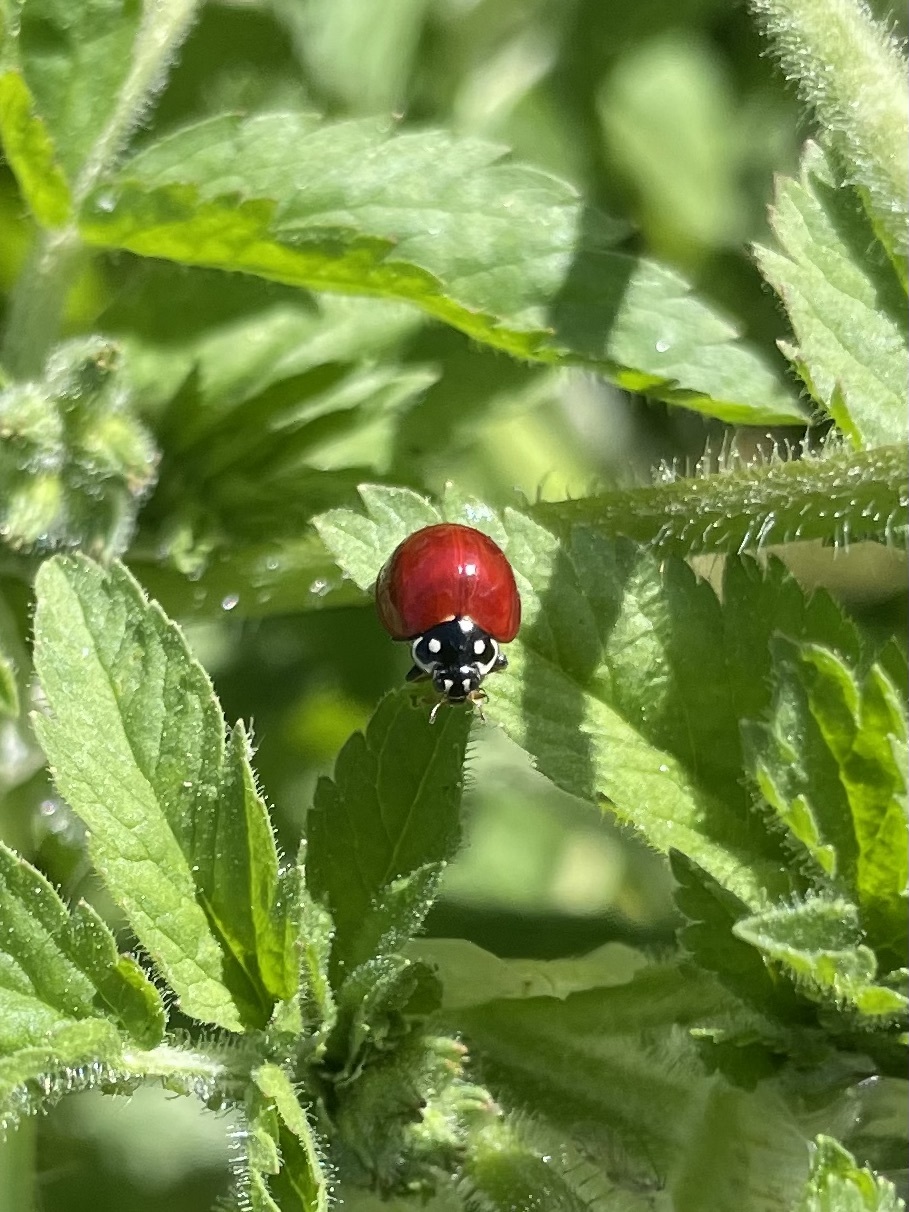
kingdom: Animalia
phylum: Arthropoda
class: Insecta
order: Coleoptera
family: Coccinellidae
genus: Cycloneda
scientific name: Cycloneda sanguinea
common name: Ladybird beetle
